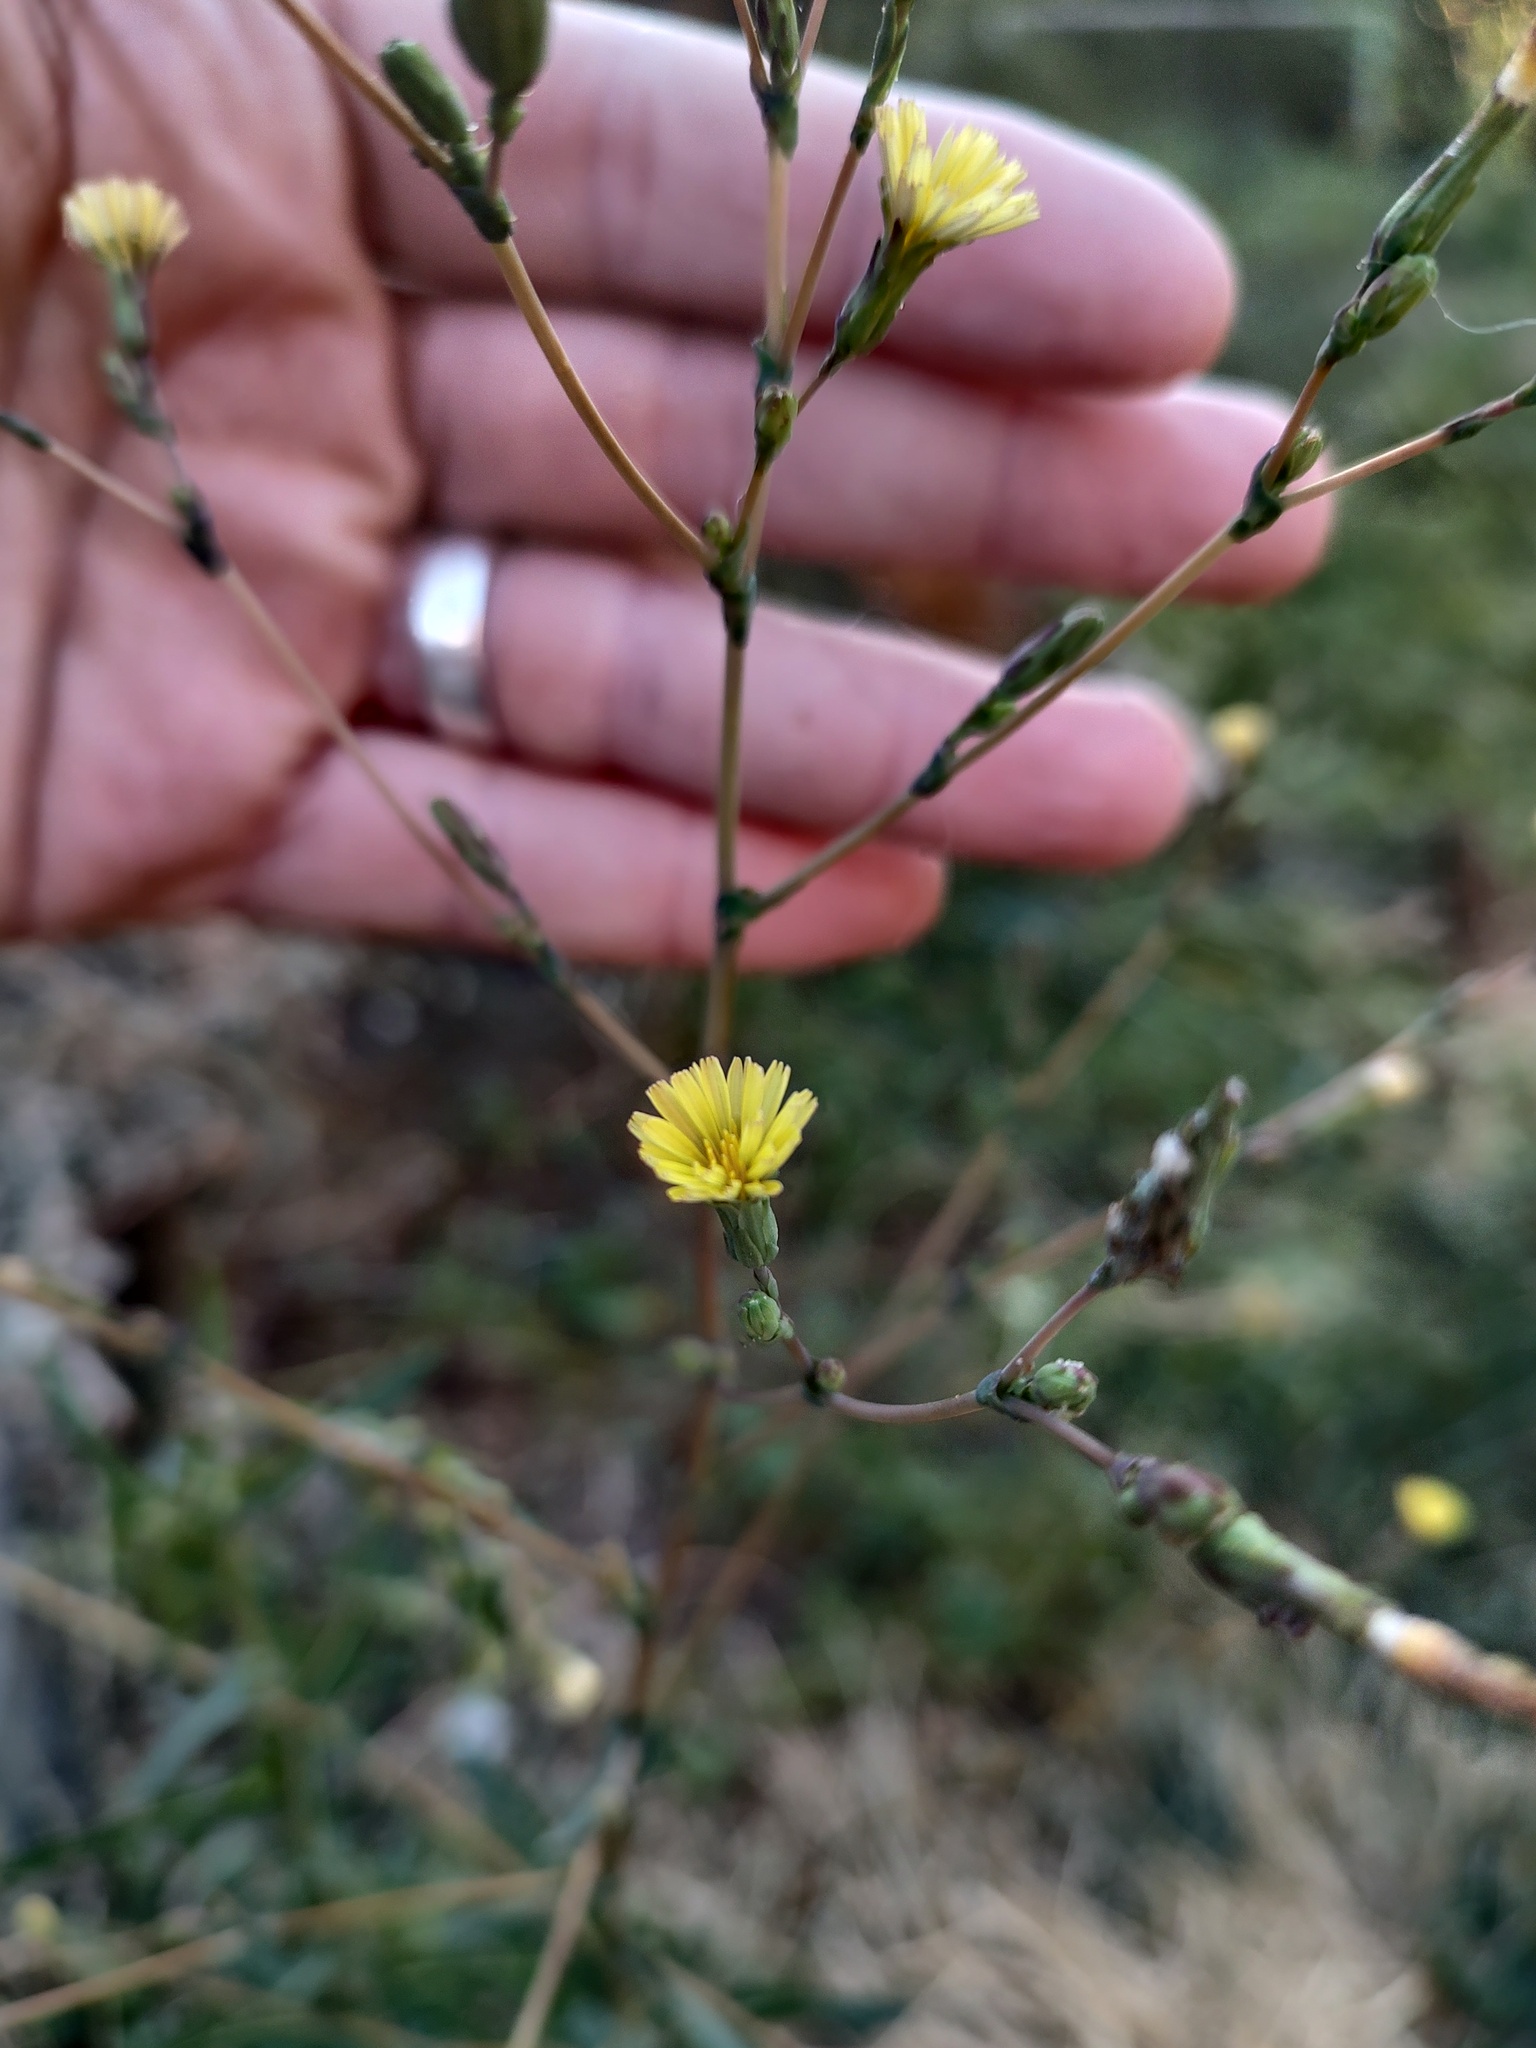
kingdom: Plantae
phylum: Tracheophyta
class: Magnoliopsida
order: Asterales
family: Asteraceae
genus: Lactuca
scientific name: Lactuca serriola
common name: Prickly lettuce
